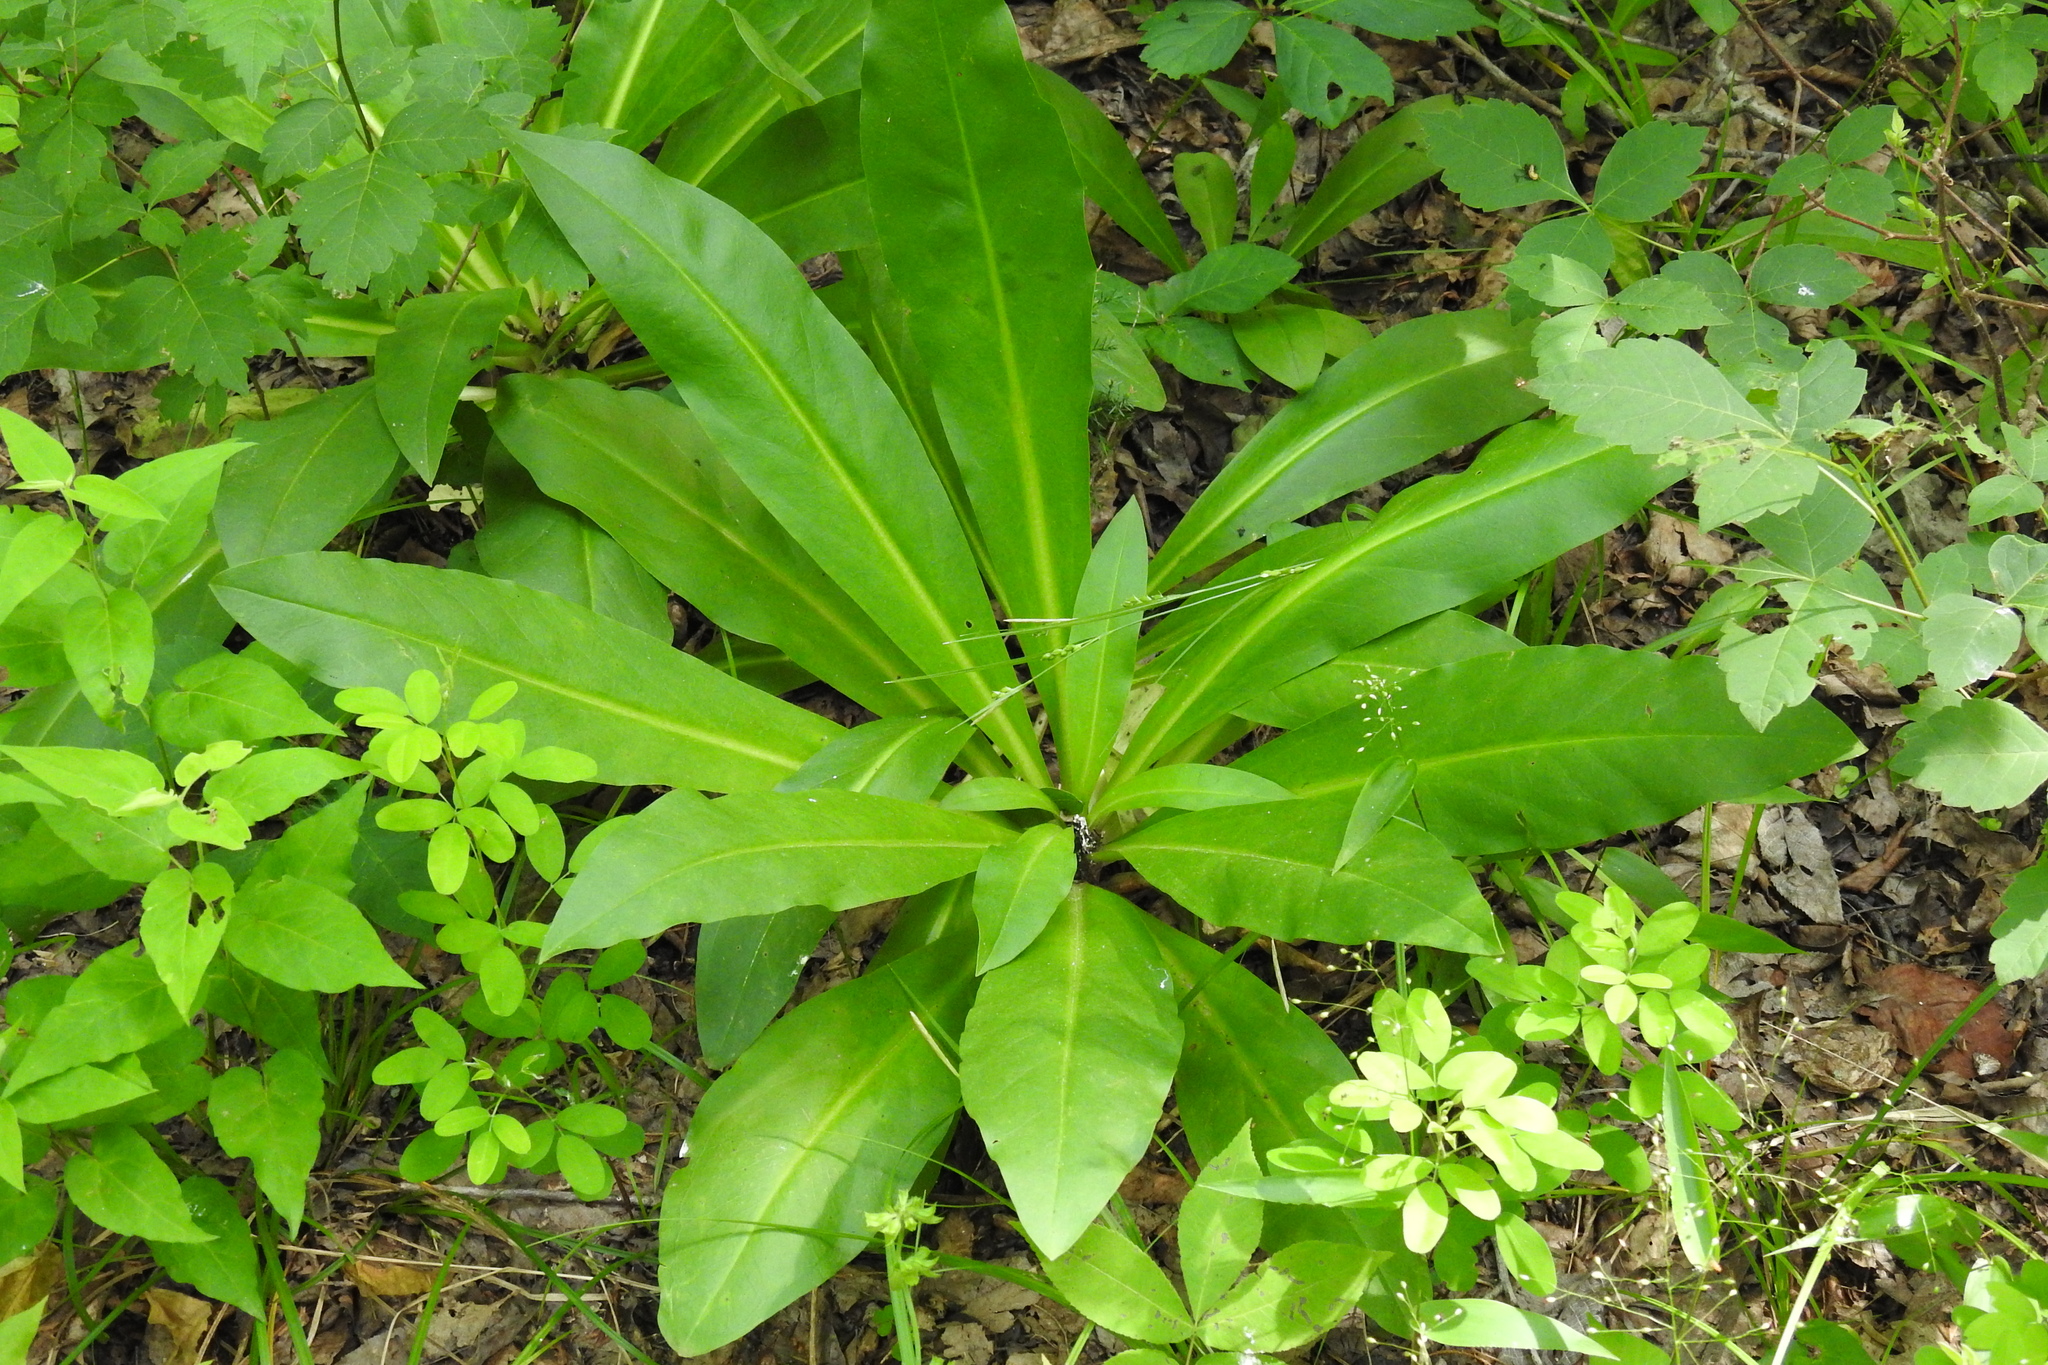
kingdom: Plantae
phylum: Tracheophyta
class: Magnoliopsida
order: Gentianales
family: Gentianaceae
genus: Frasera
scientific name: Frasera caroliniensis
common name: American columbo
